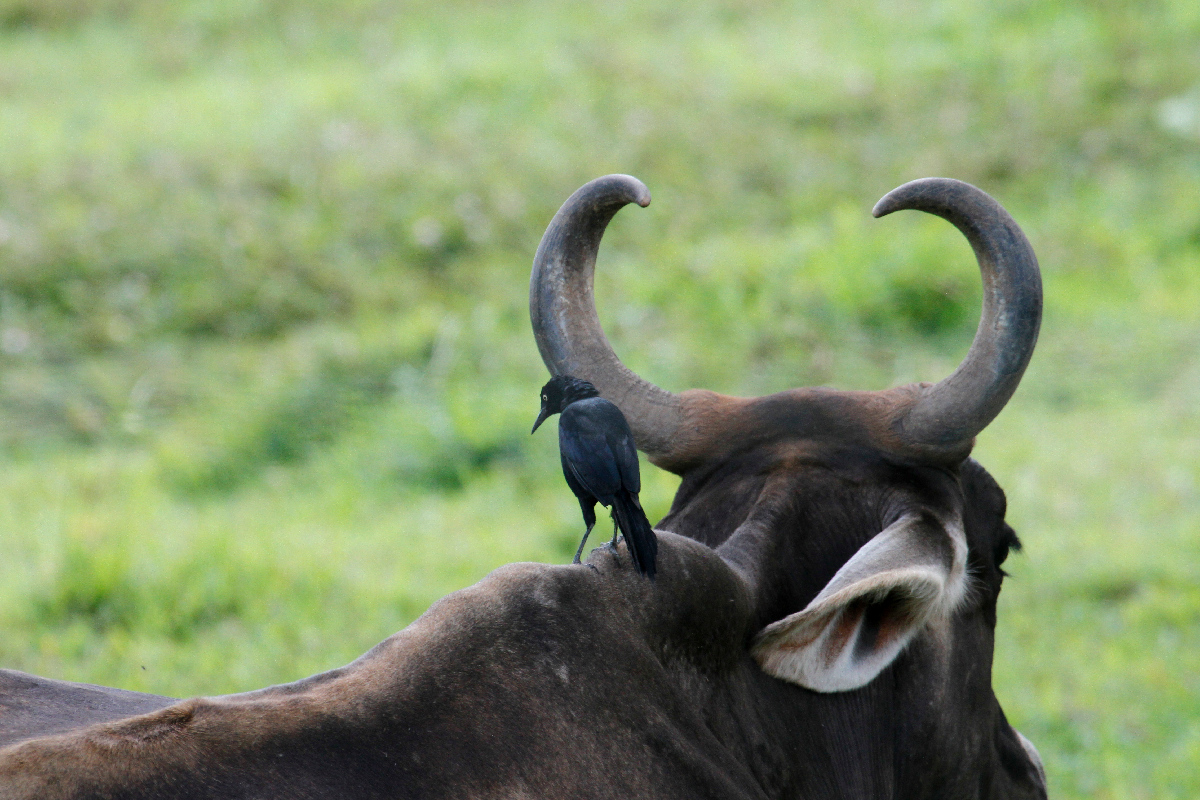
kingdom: Animalia
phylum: Chordata
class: Aves
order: Passeriformes
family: Icteridae
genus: Quiscalus
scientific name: Quiscalus nicaraguensis
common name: Nicaraguan grackle
